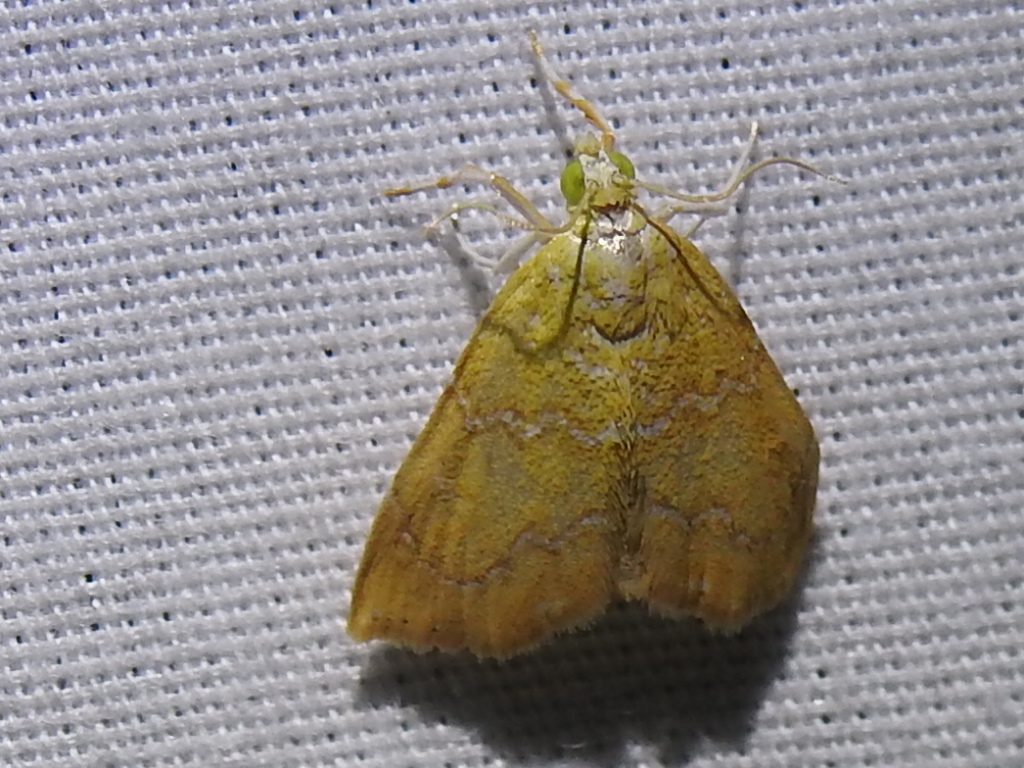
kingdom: Animalia
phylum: Arthropoda
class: Insecta
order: Lepidoptera
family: Crambidae
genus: Glaphyria
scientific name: Glaphyria sesquistrialis
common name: White-roped glaphyria
